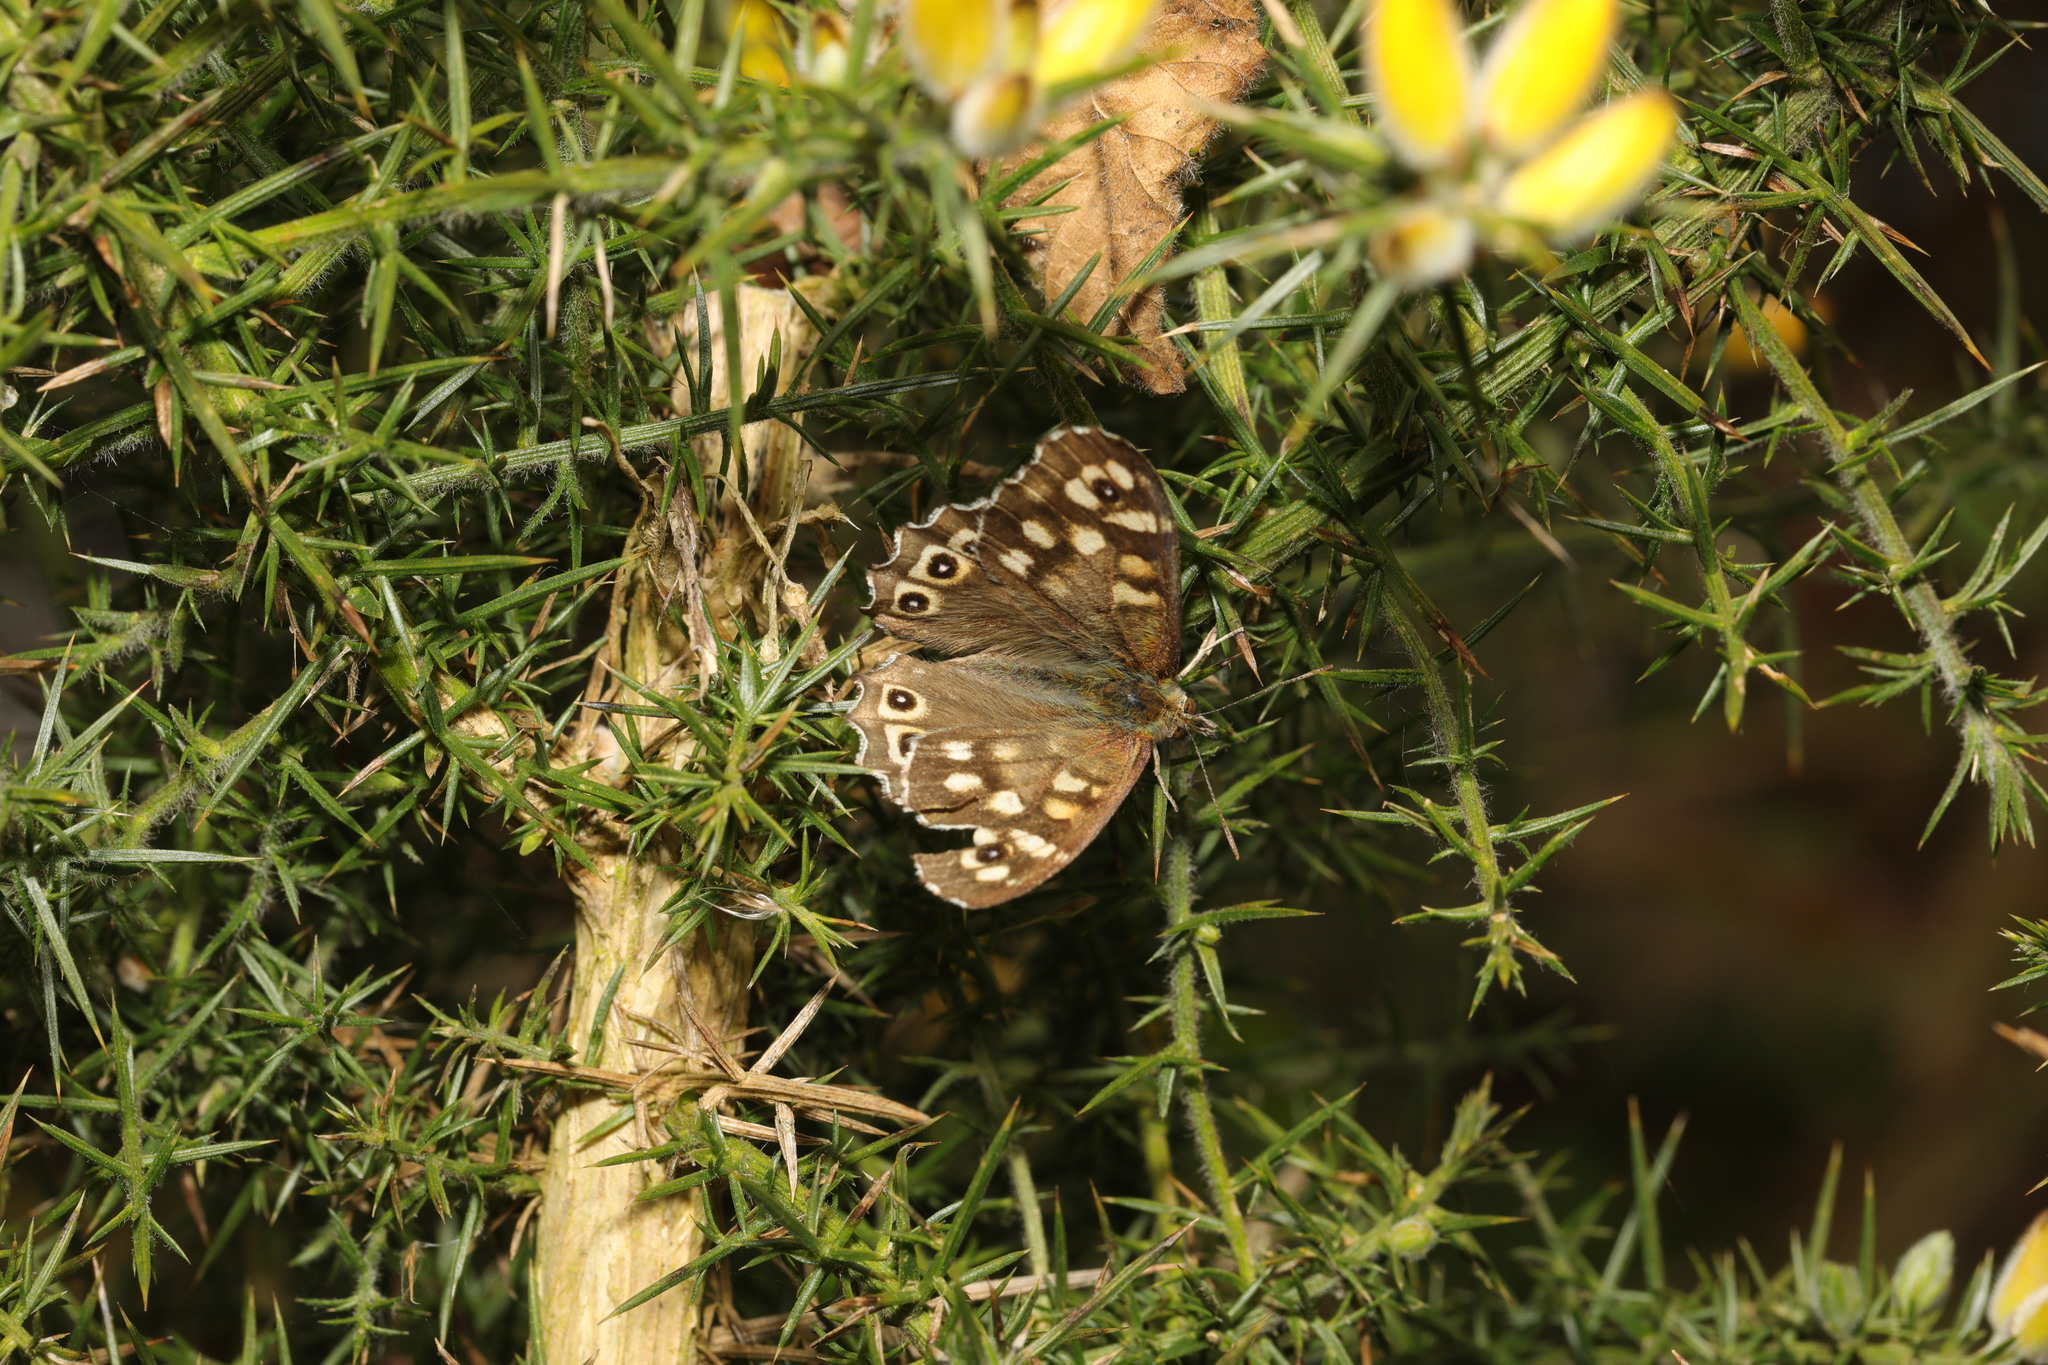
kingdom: Animalia
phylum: Arthropoda
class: Insecta
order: Lepidoptera
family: Nymphalidae
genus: Pararge
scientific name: Pararge aegeria
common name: Speckled wood
